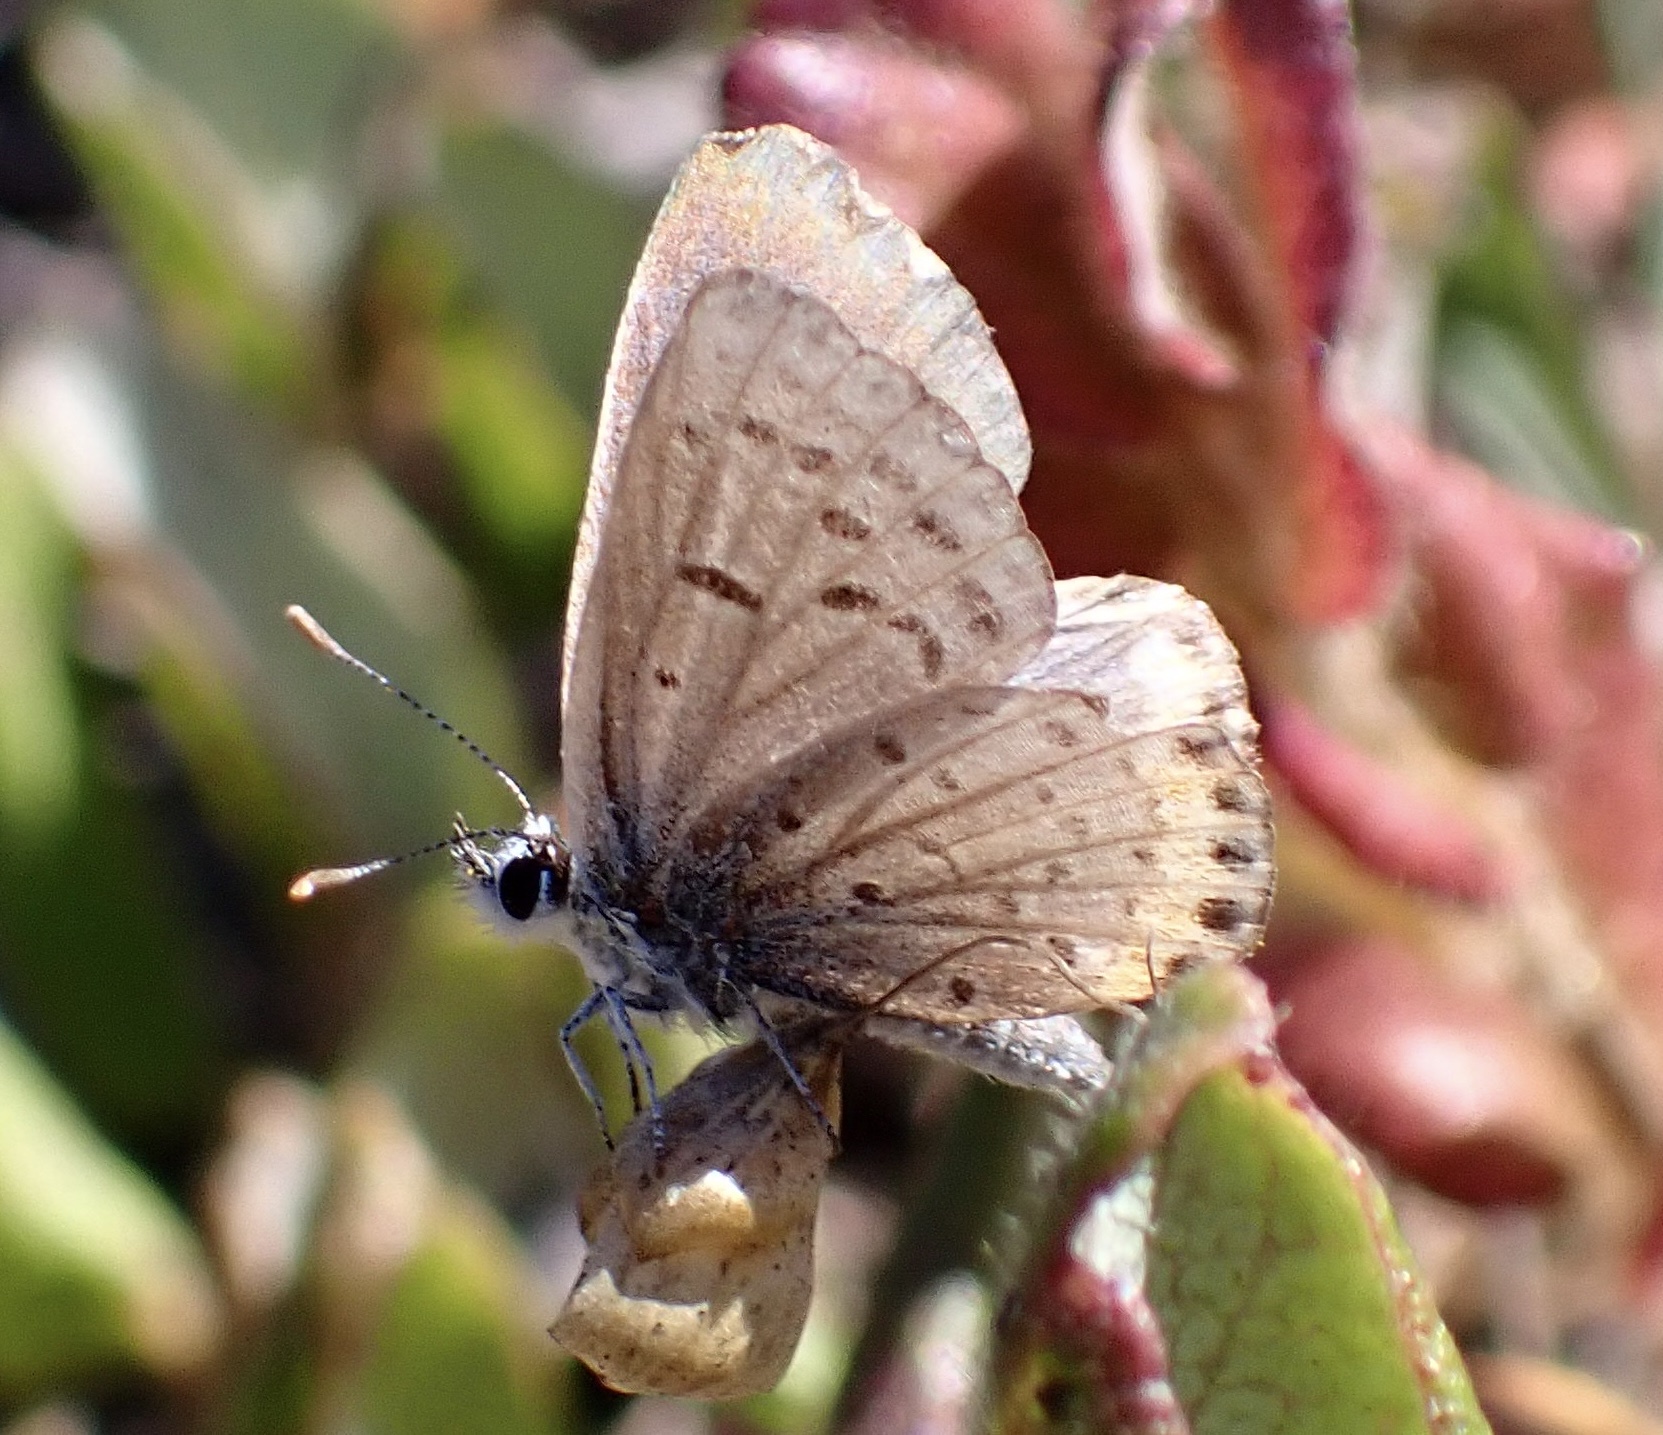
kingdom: Animalia
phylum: Arthropoda
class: Insecta
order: Lepidoptera
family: Lycaenidae
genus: Icaricia
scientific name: Icaricia acmon
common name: Acmon blue
